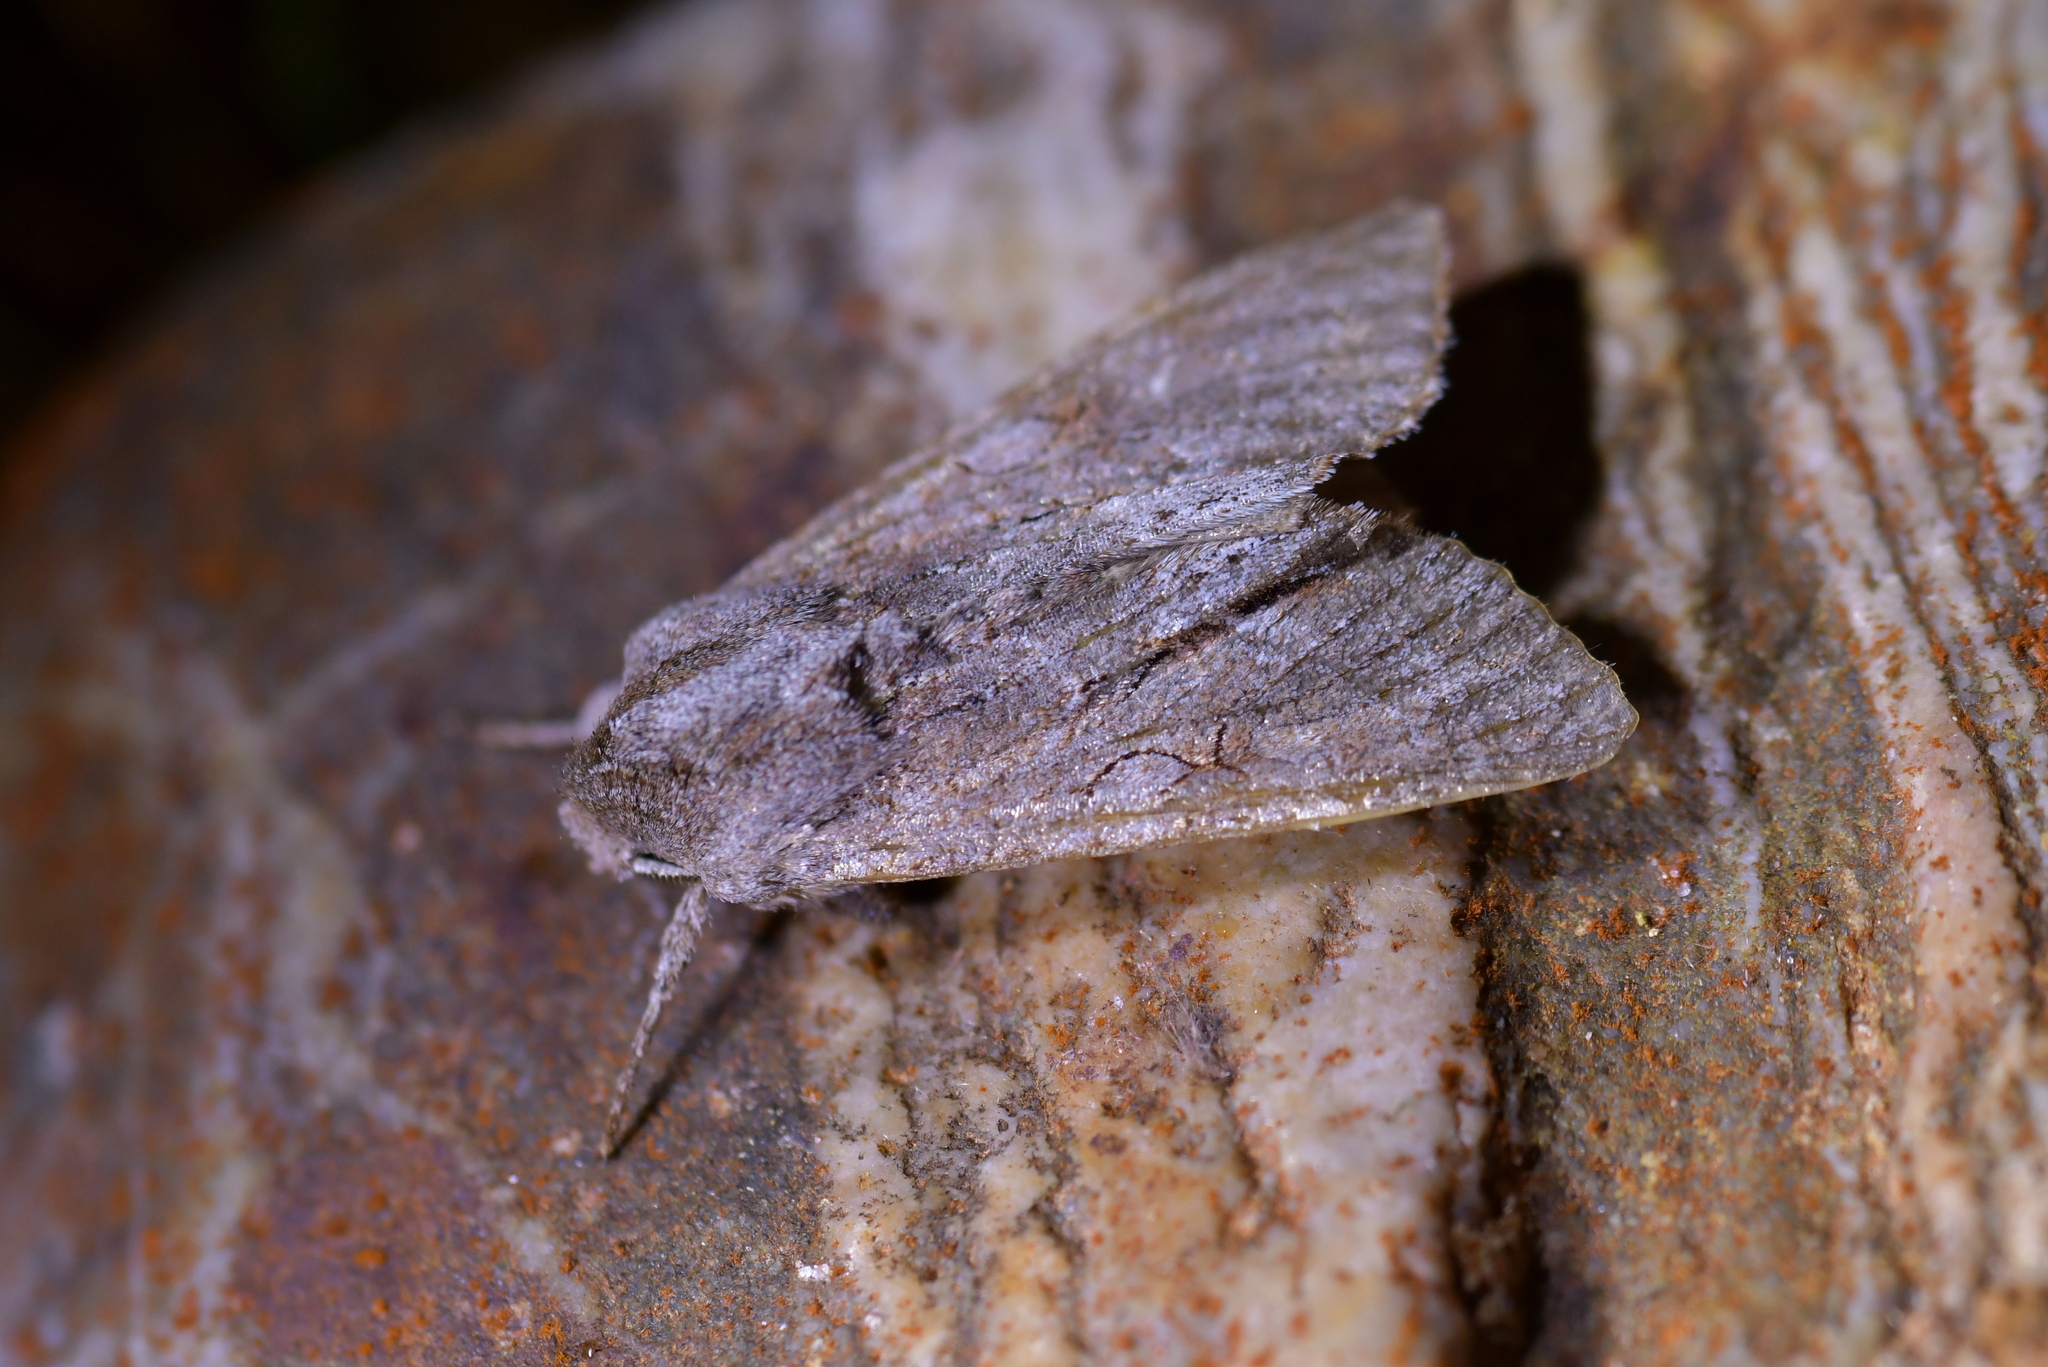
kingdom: Animalia
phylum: Arthropoda
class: Insecta
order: Lepidoptera
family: Noctuidae
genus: Ichneutica
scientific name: Ichneutica
